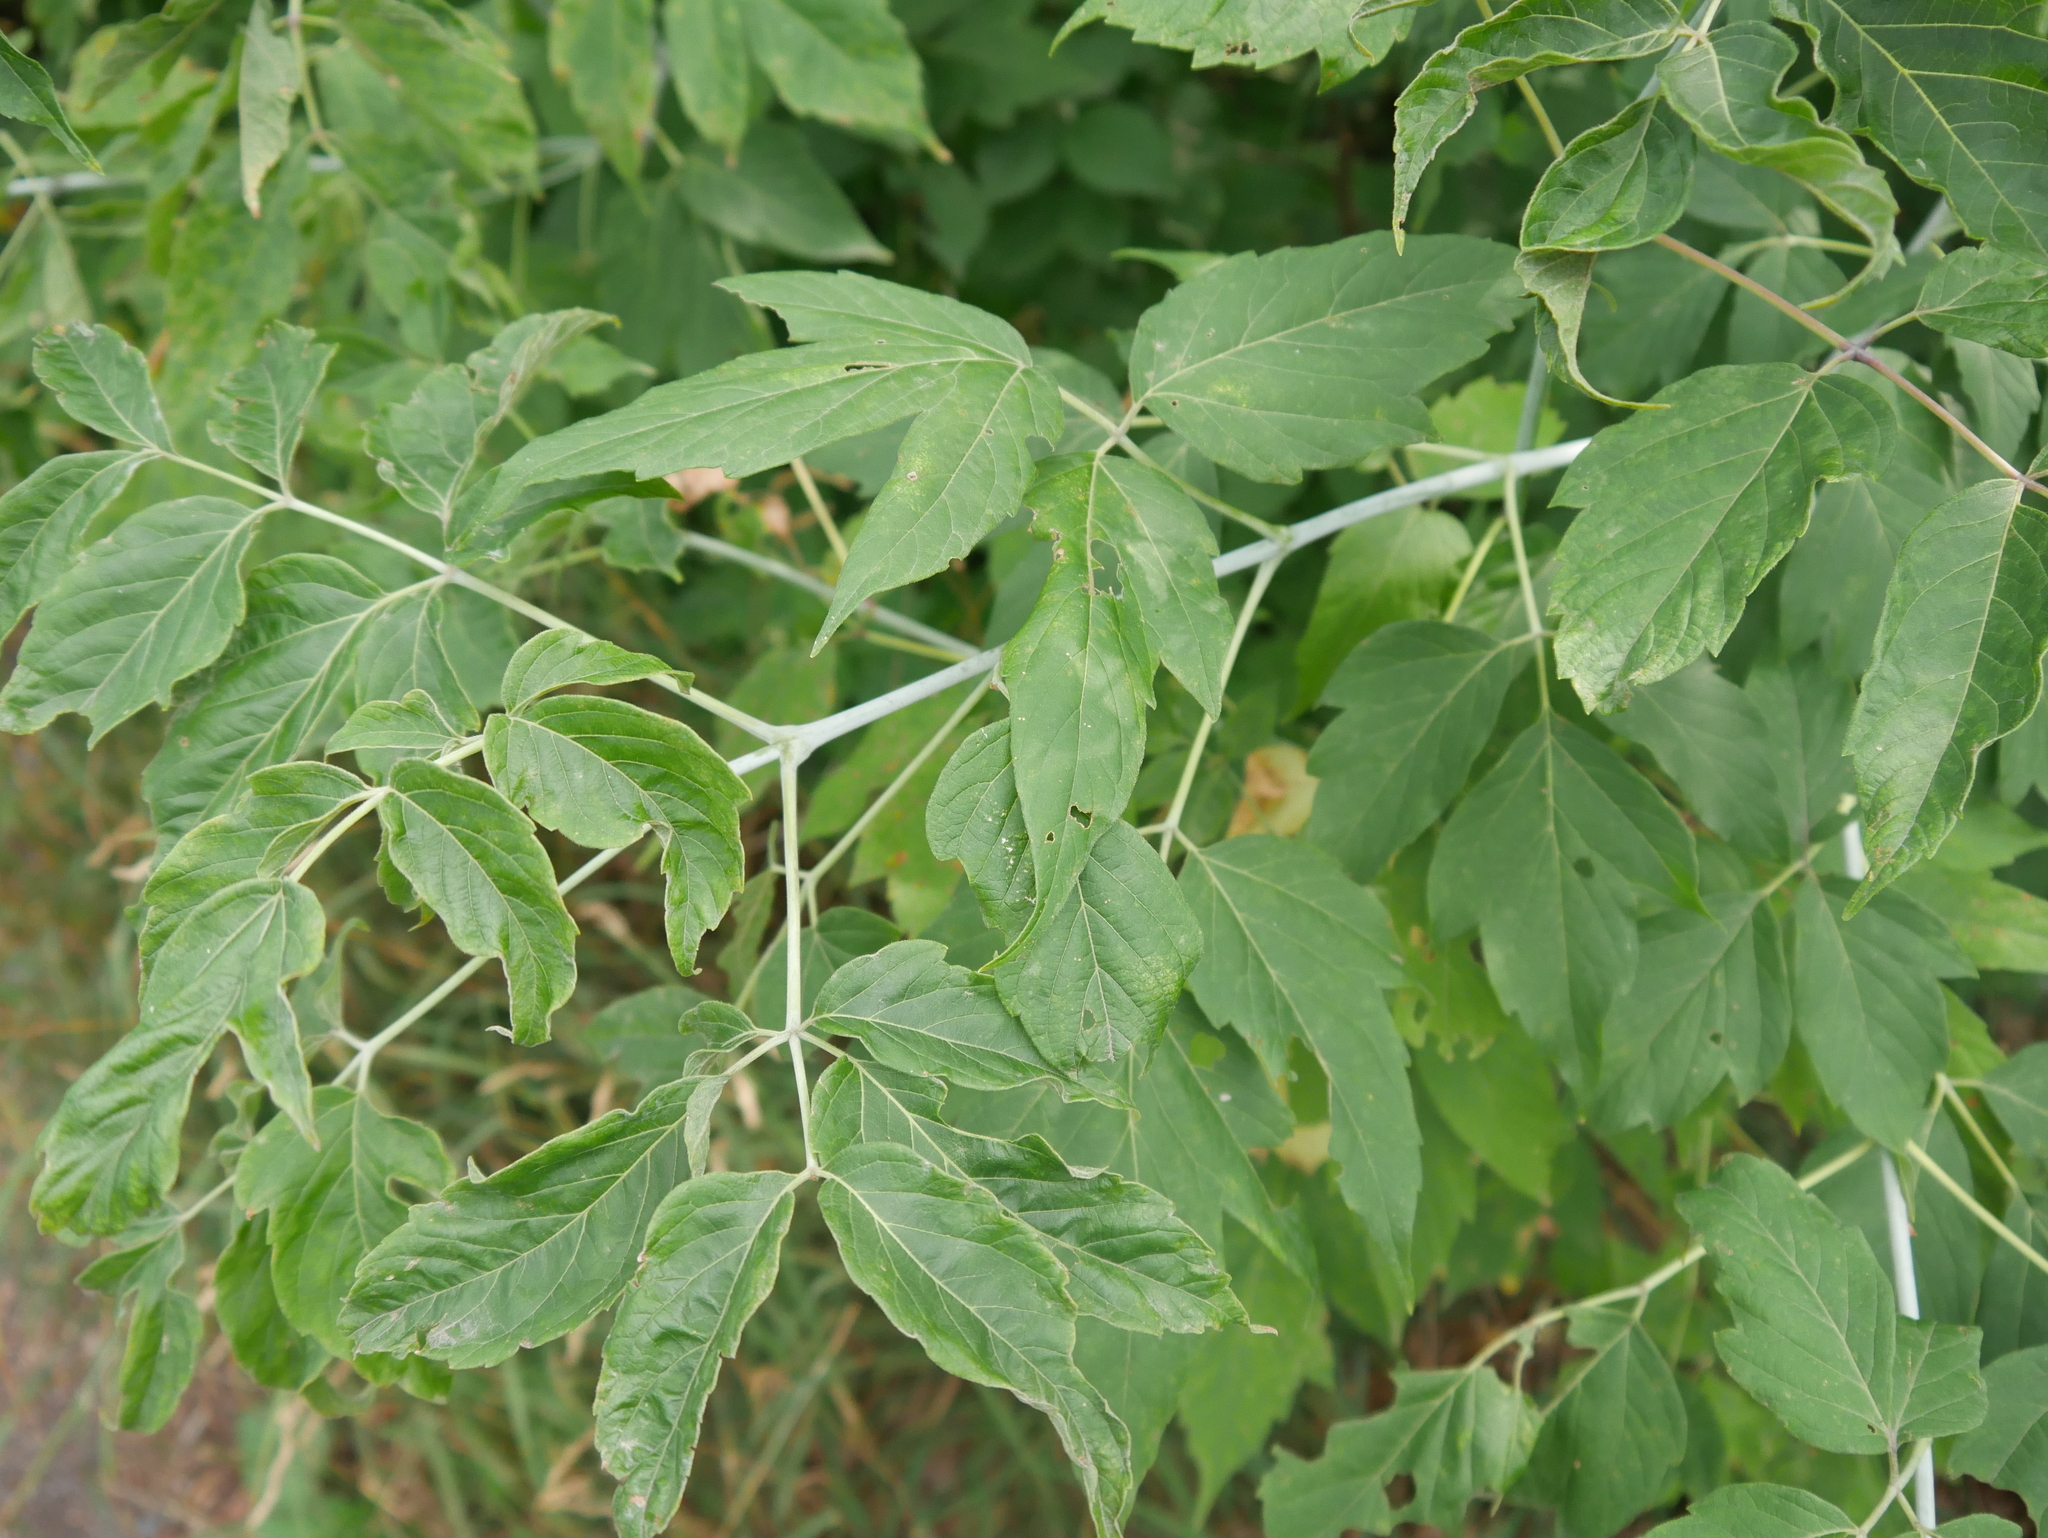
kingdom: Plantae
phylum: Tracheophyta
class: Magnoliopsida
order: Sapindales
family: Sapindaceae
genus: Acer
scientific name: Acer negundo
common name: Ashleaf maple
